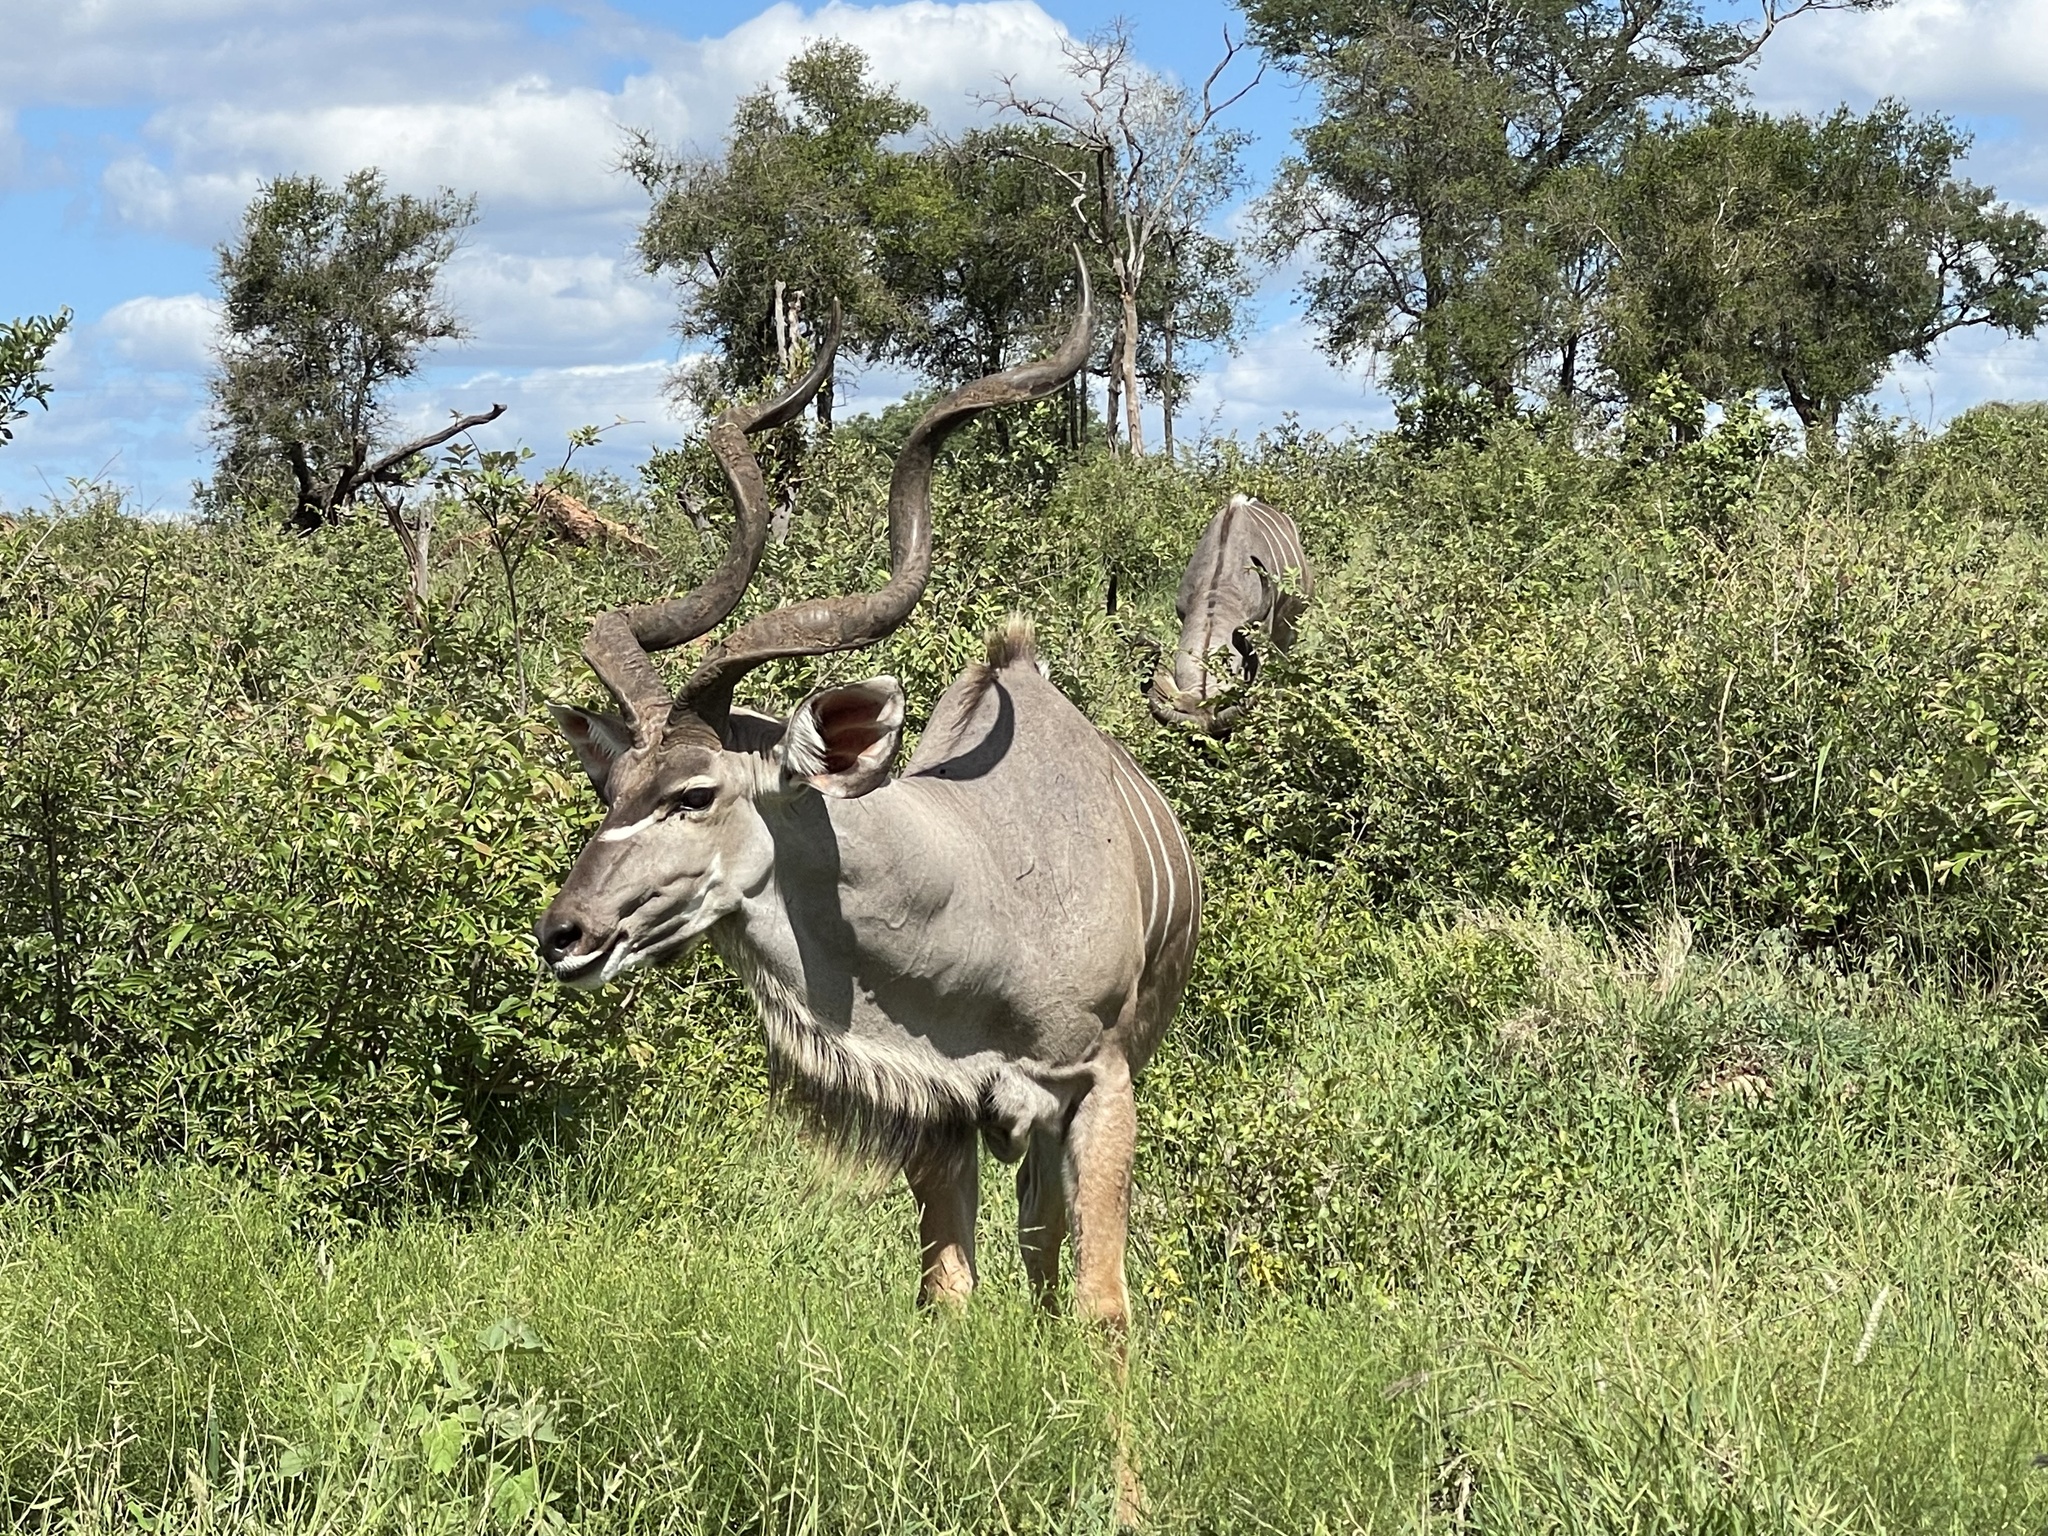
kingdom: Animalia
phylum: Chordata
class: Mammalia
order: Artiodactyla
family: Bovidae
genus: Tragelaphus
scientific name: Tragelaphus strepsiceros
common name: Greater kudu
